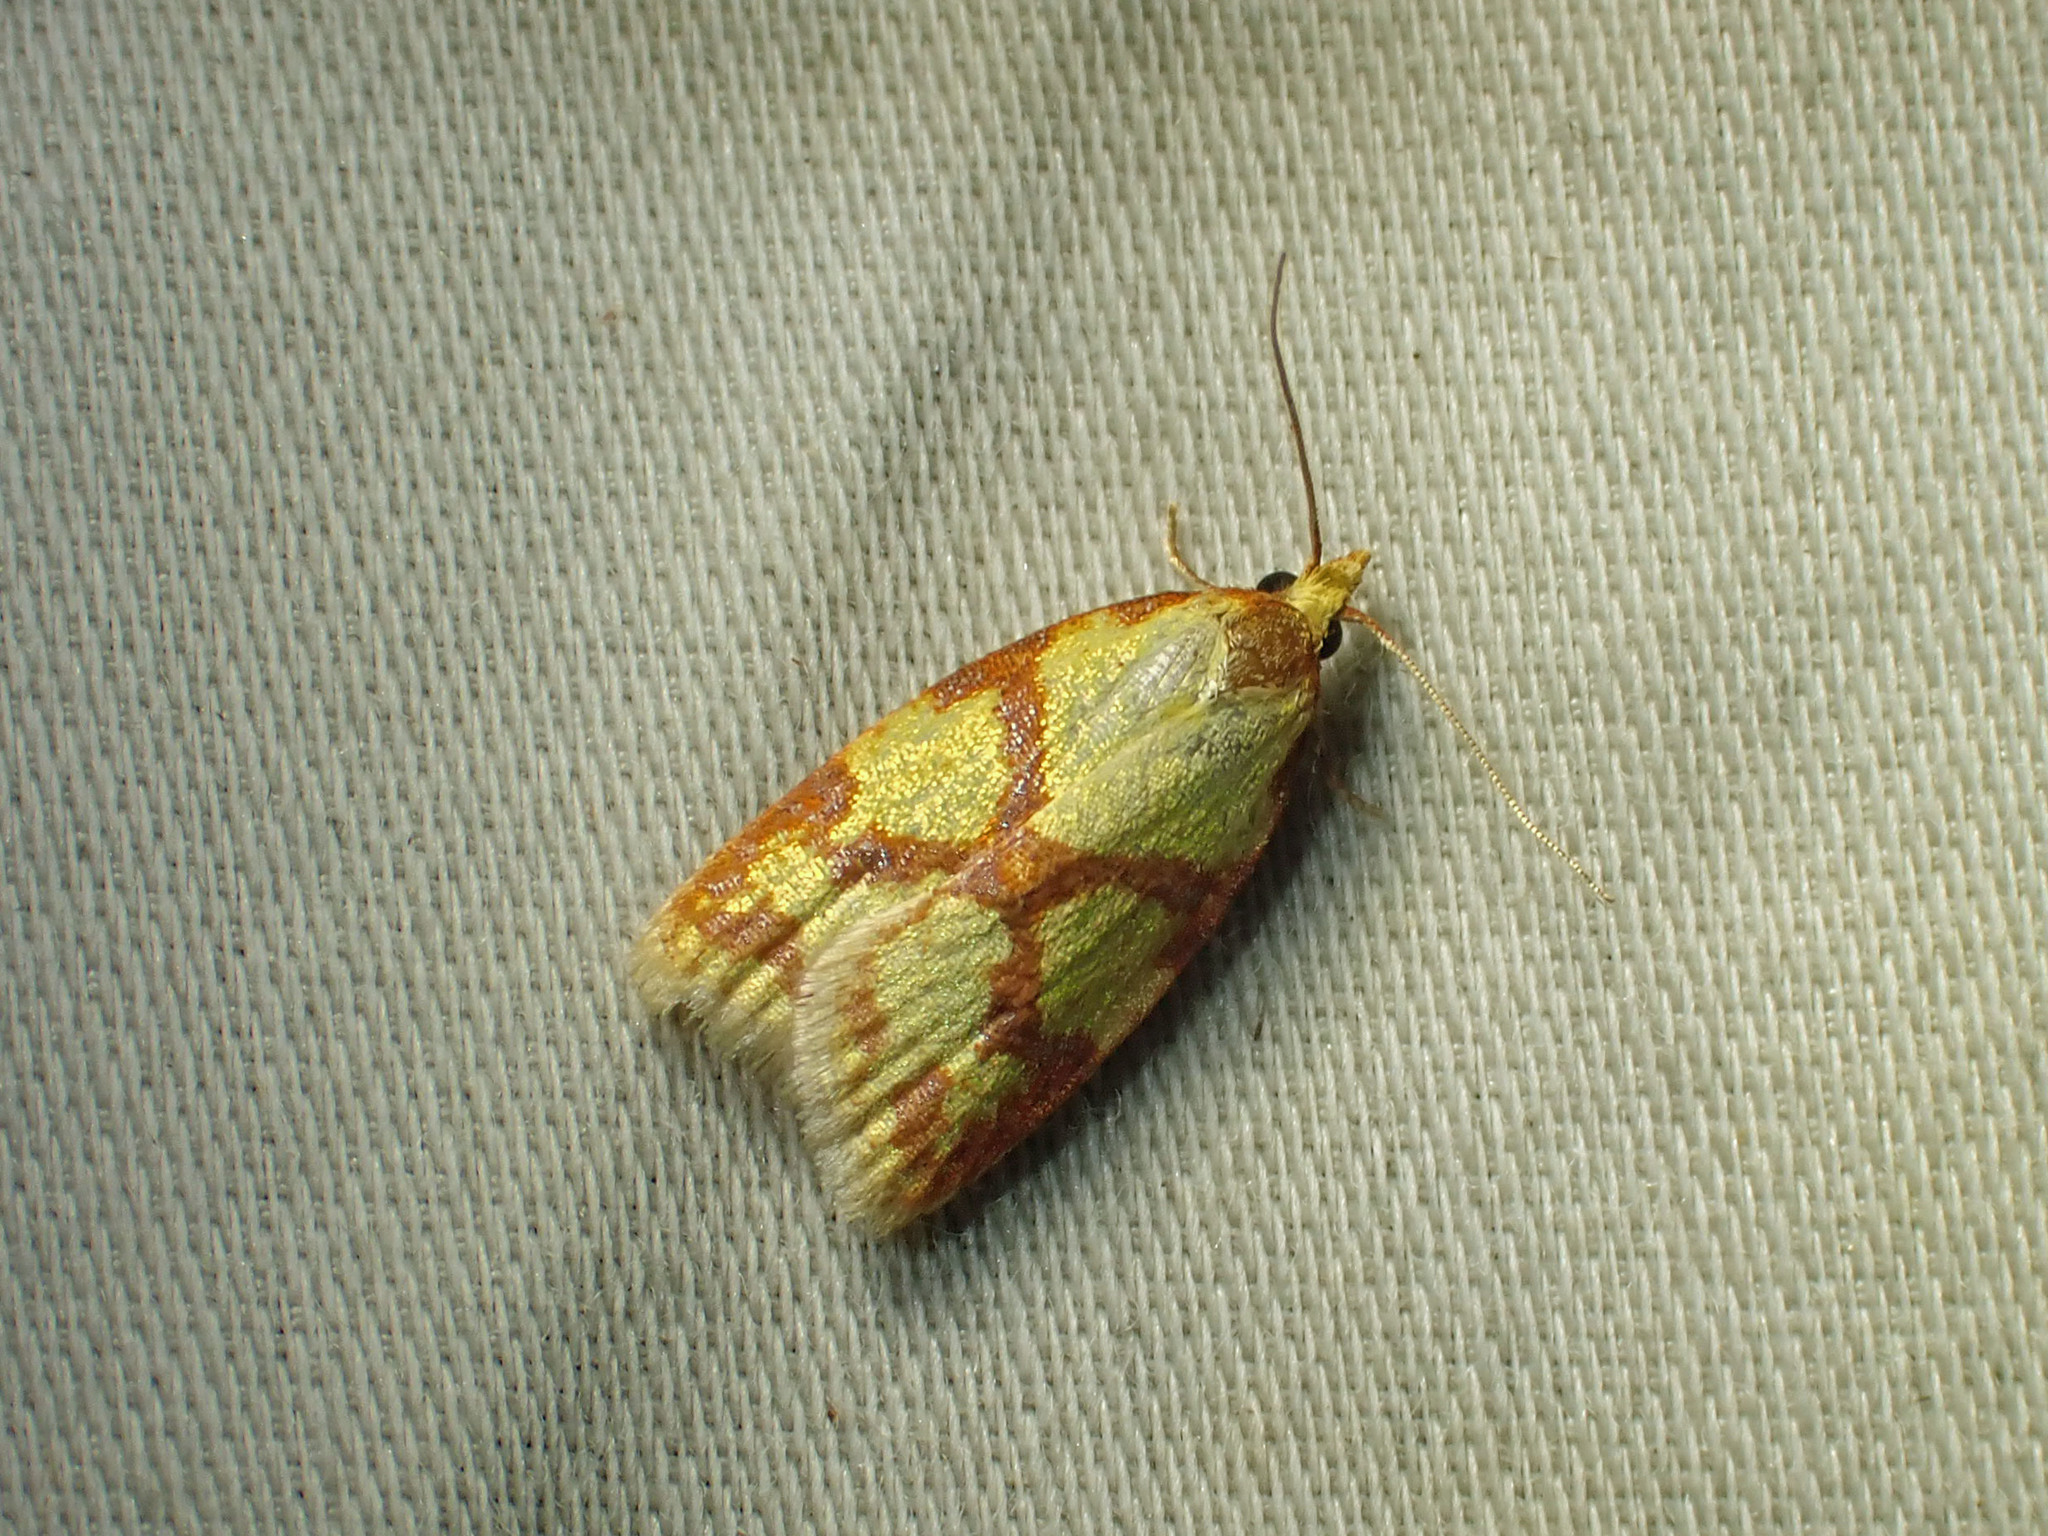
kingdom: Animalia
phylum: Arthropoda
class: Insecta
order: Lepidoptera
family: Tortricidae
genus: Sparganothis
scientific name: Sparganothis sulfureana
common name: Sparganothis fruitworm moth
